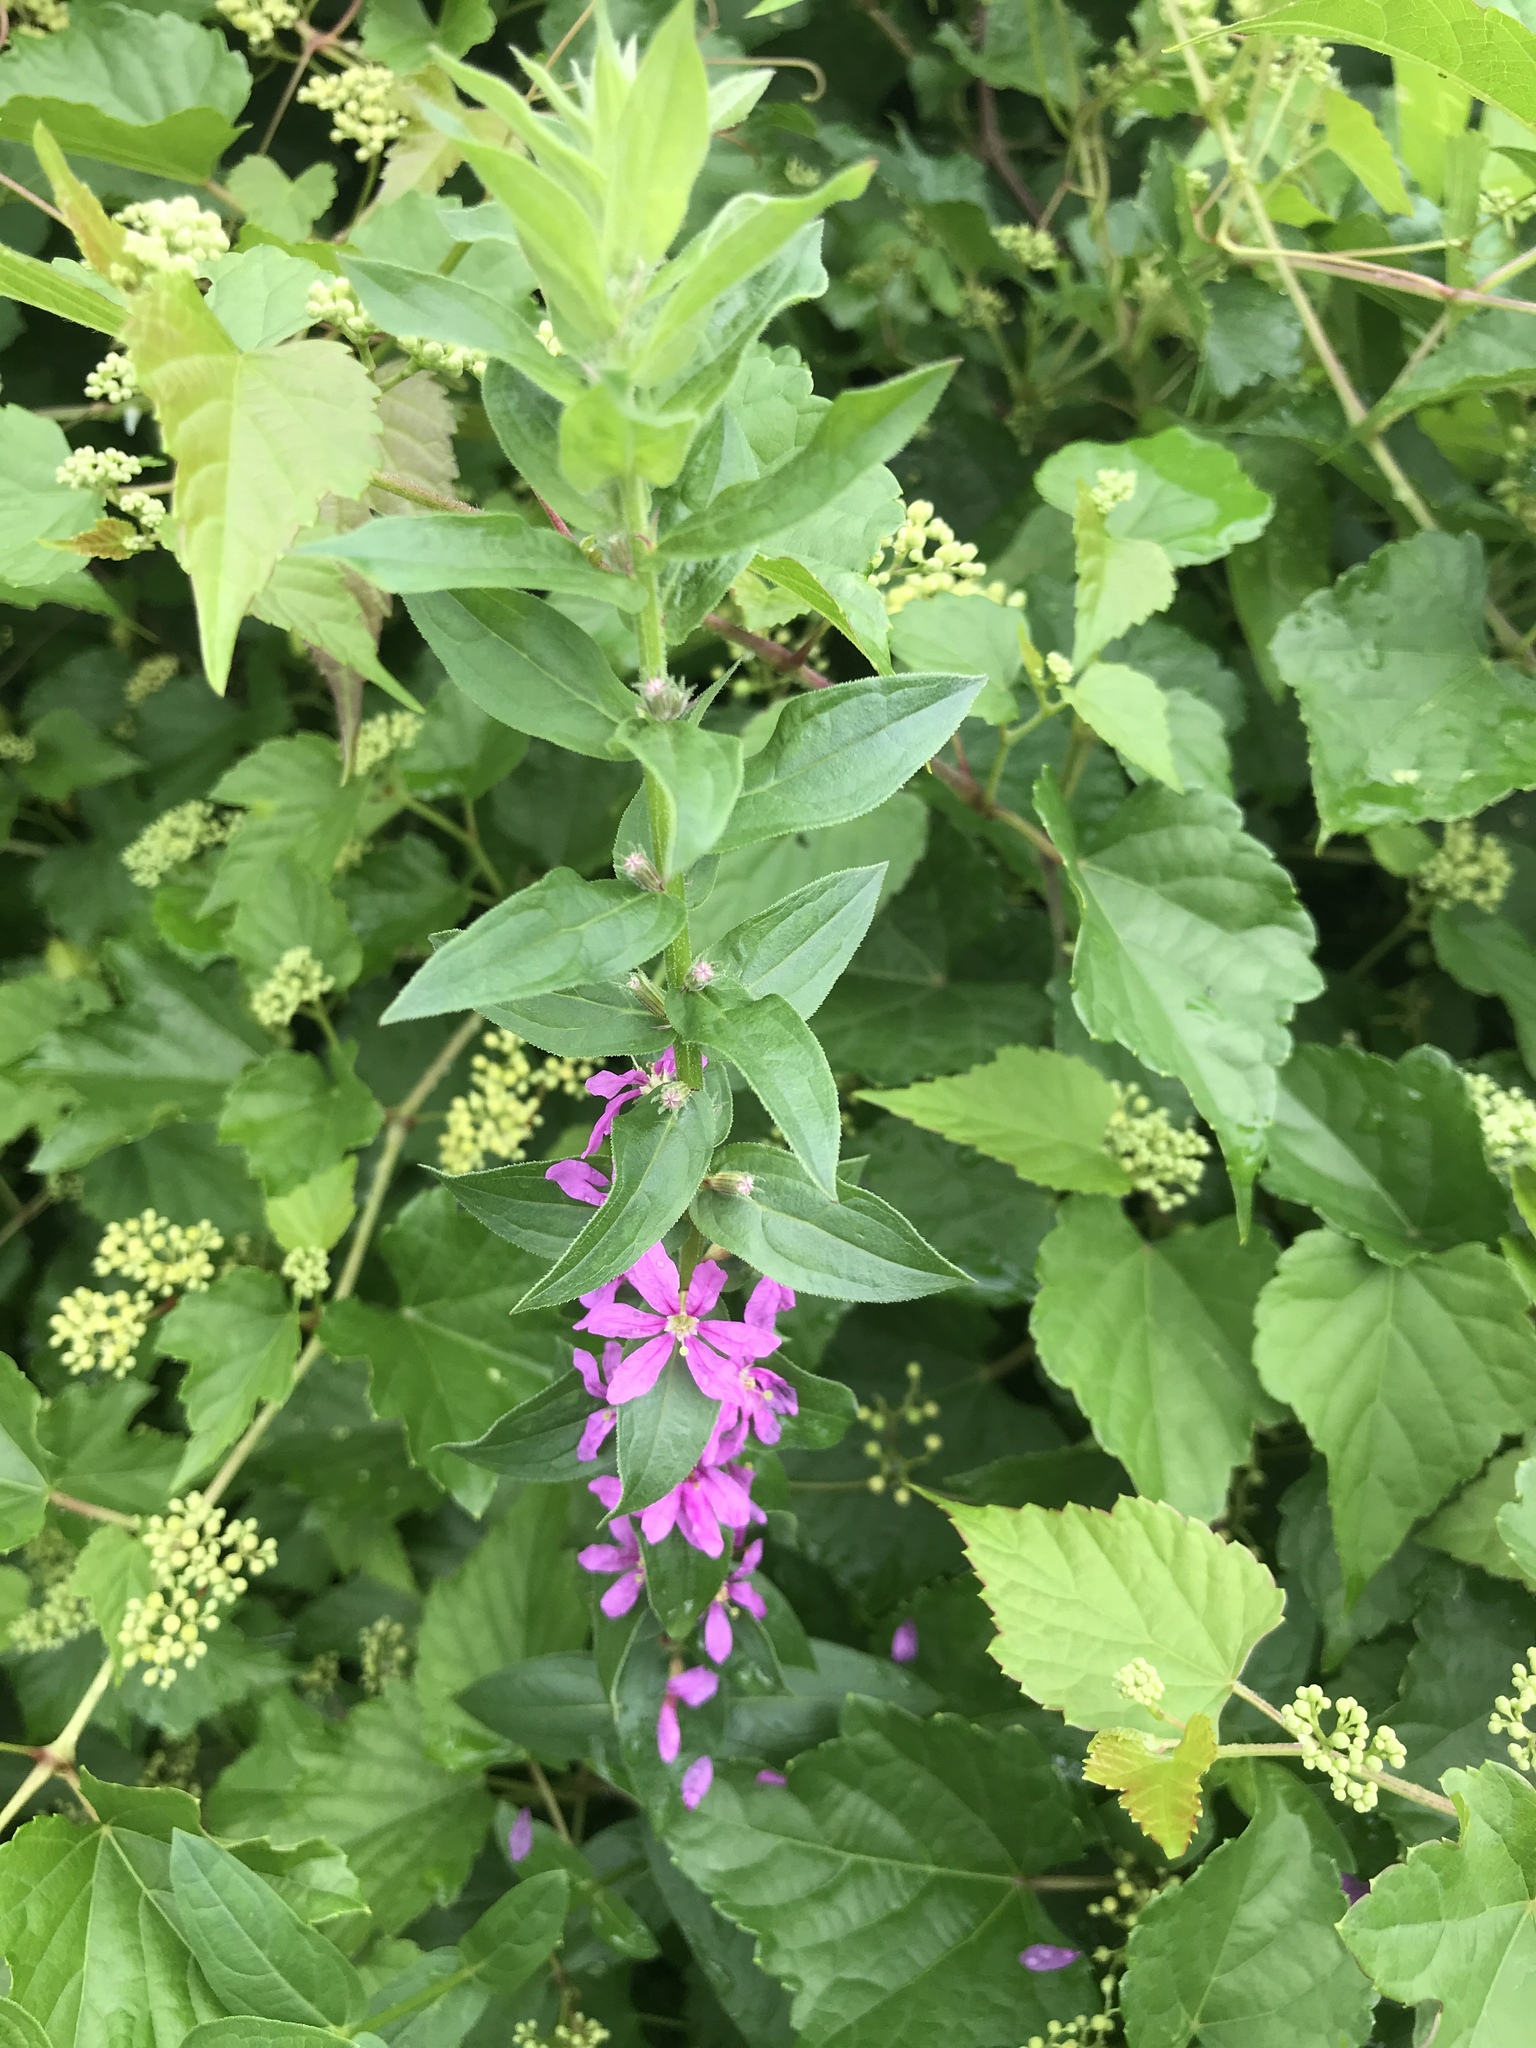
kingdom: Plantae
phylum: Tracheophyta
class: Magnoliopsida
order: Myrtales
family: Lythraceae
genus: Lythrum
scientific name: Lythrum salicaria
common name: Purple loosestrife
